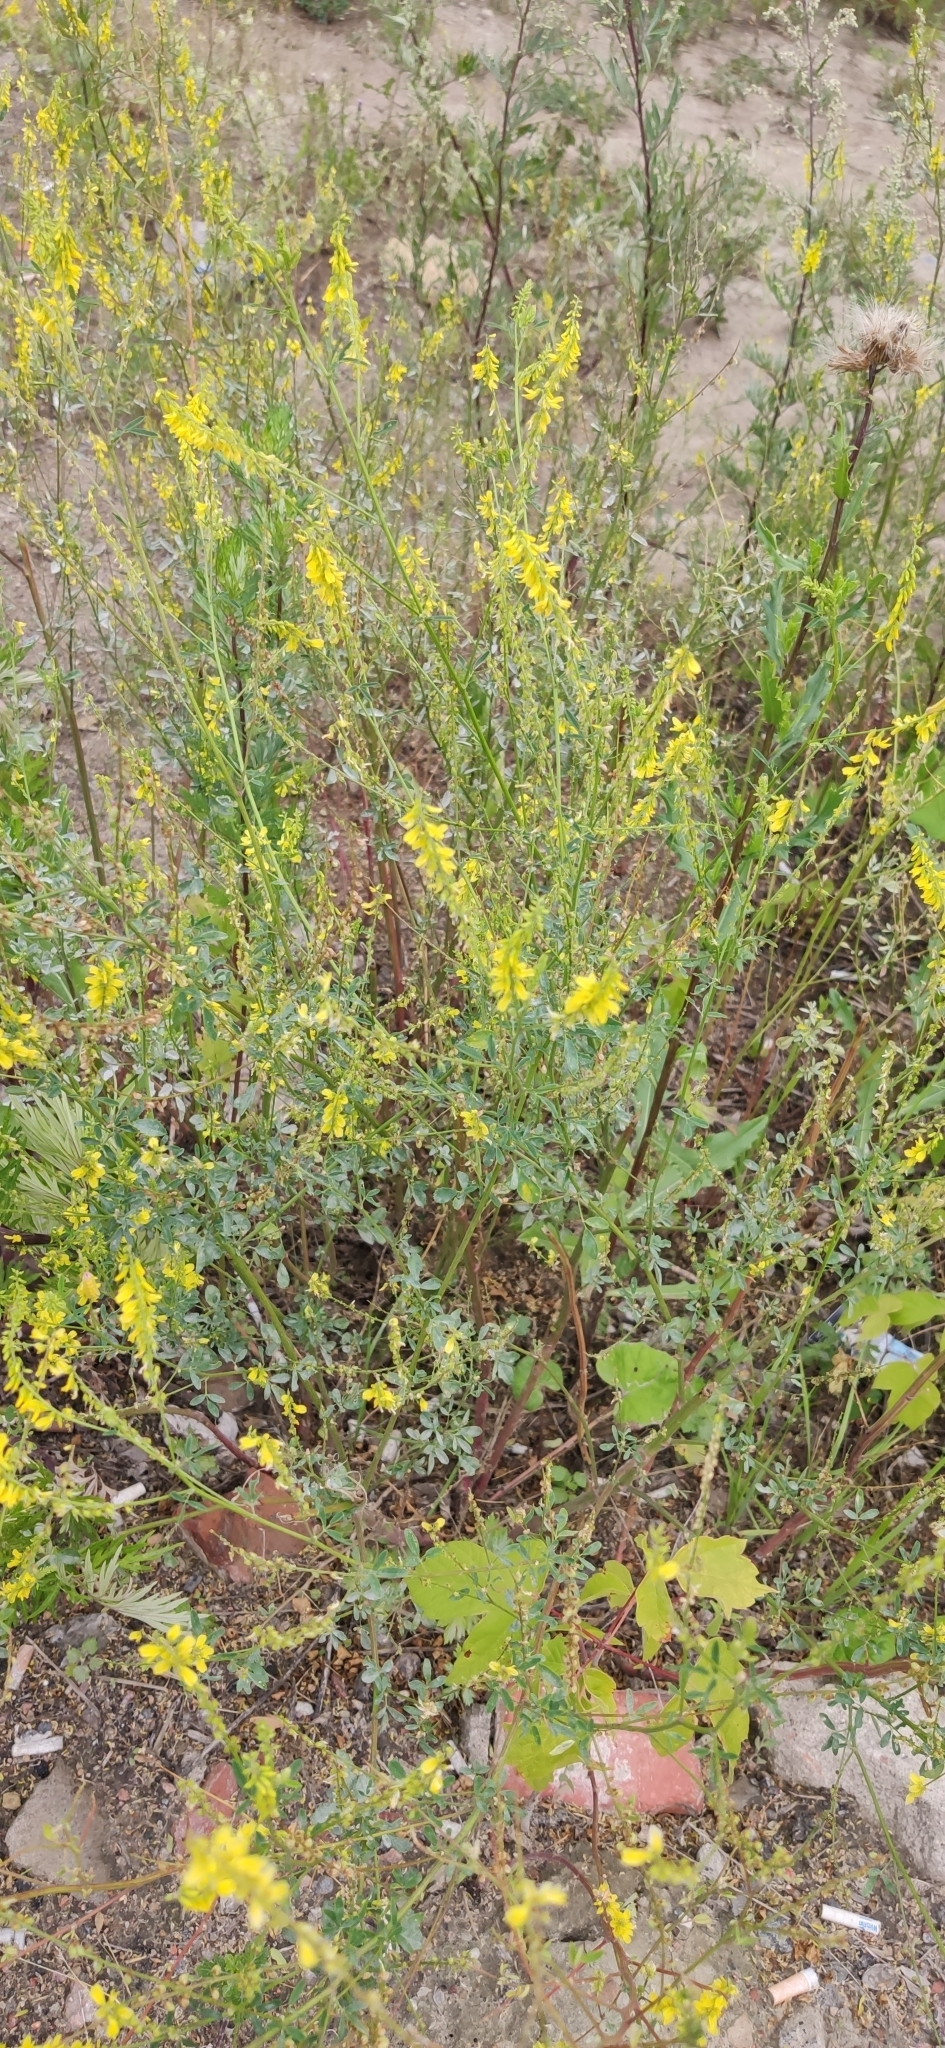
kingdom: Plantae
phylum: Tracheophyta
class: Magnoliopsida
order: Fabales
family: Fabaceae
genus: Melilotus
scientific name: Melilotus officinalis
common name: Sweetclover
